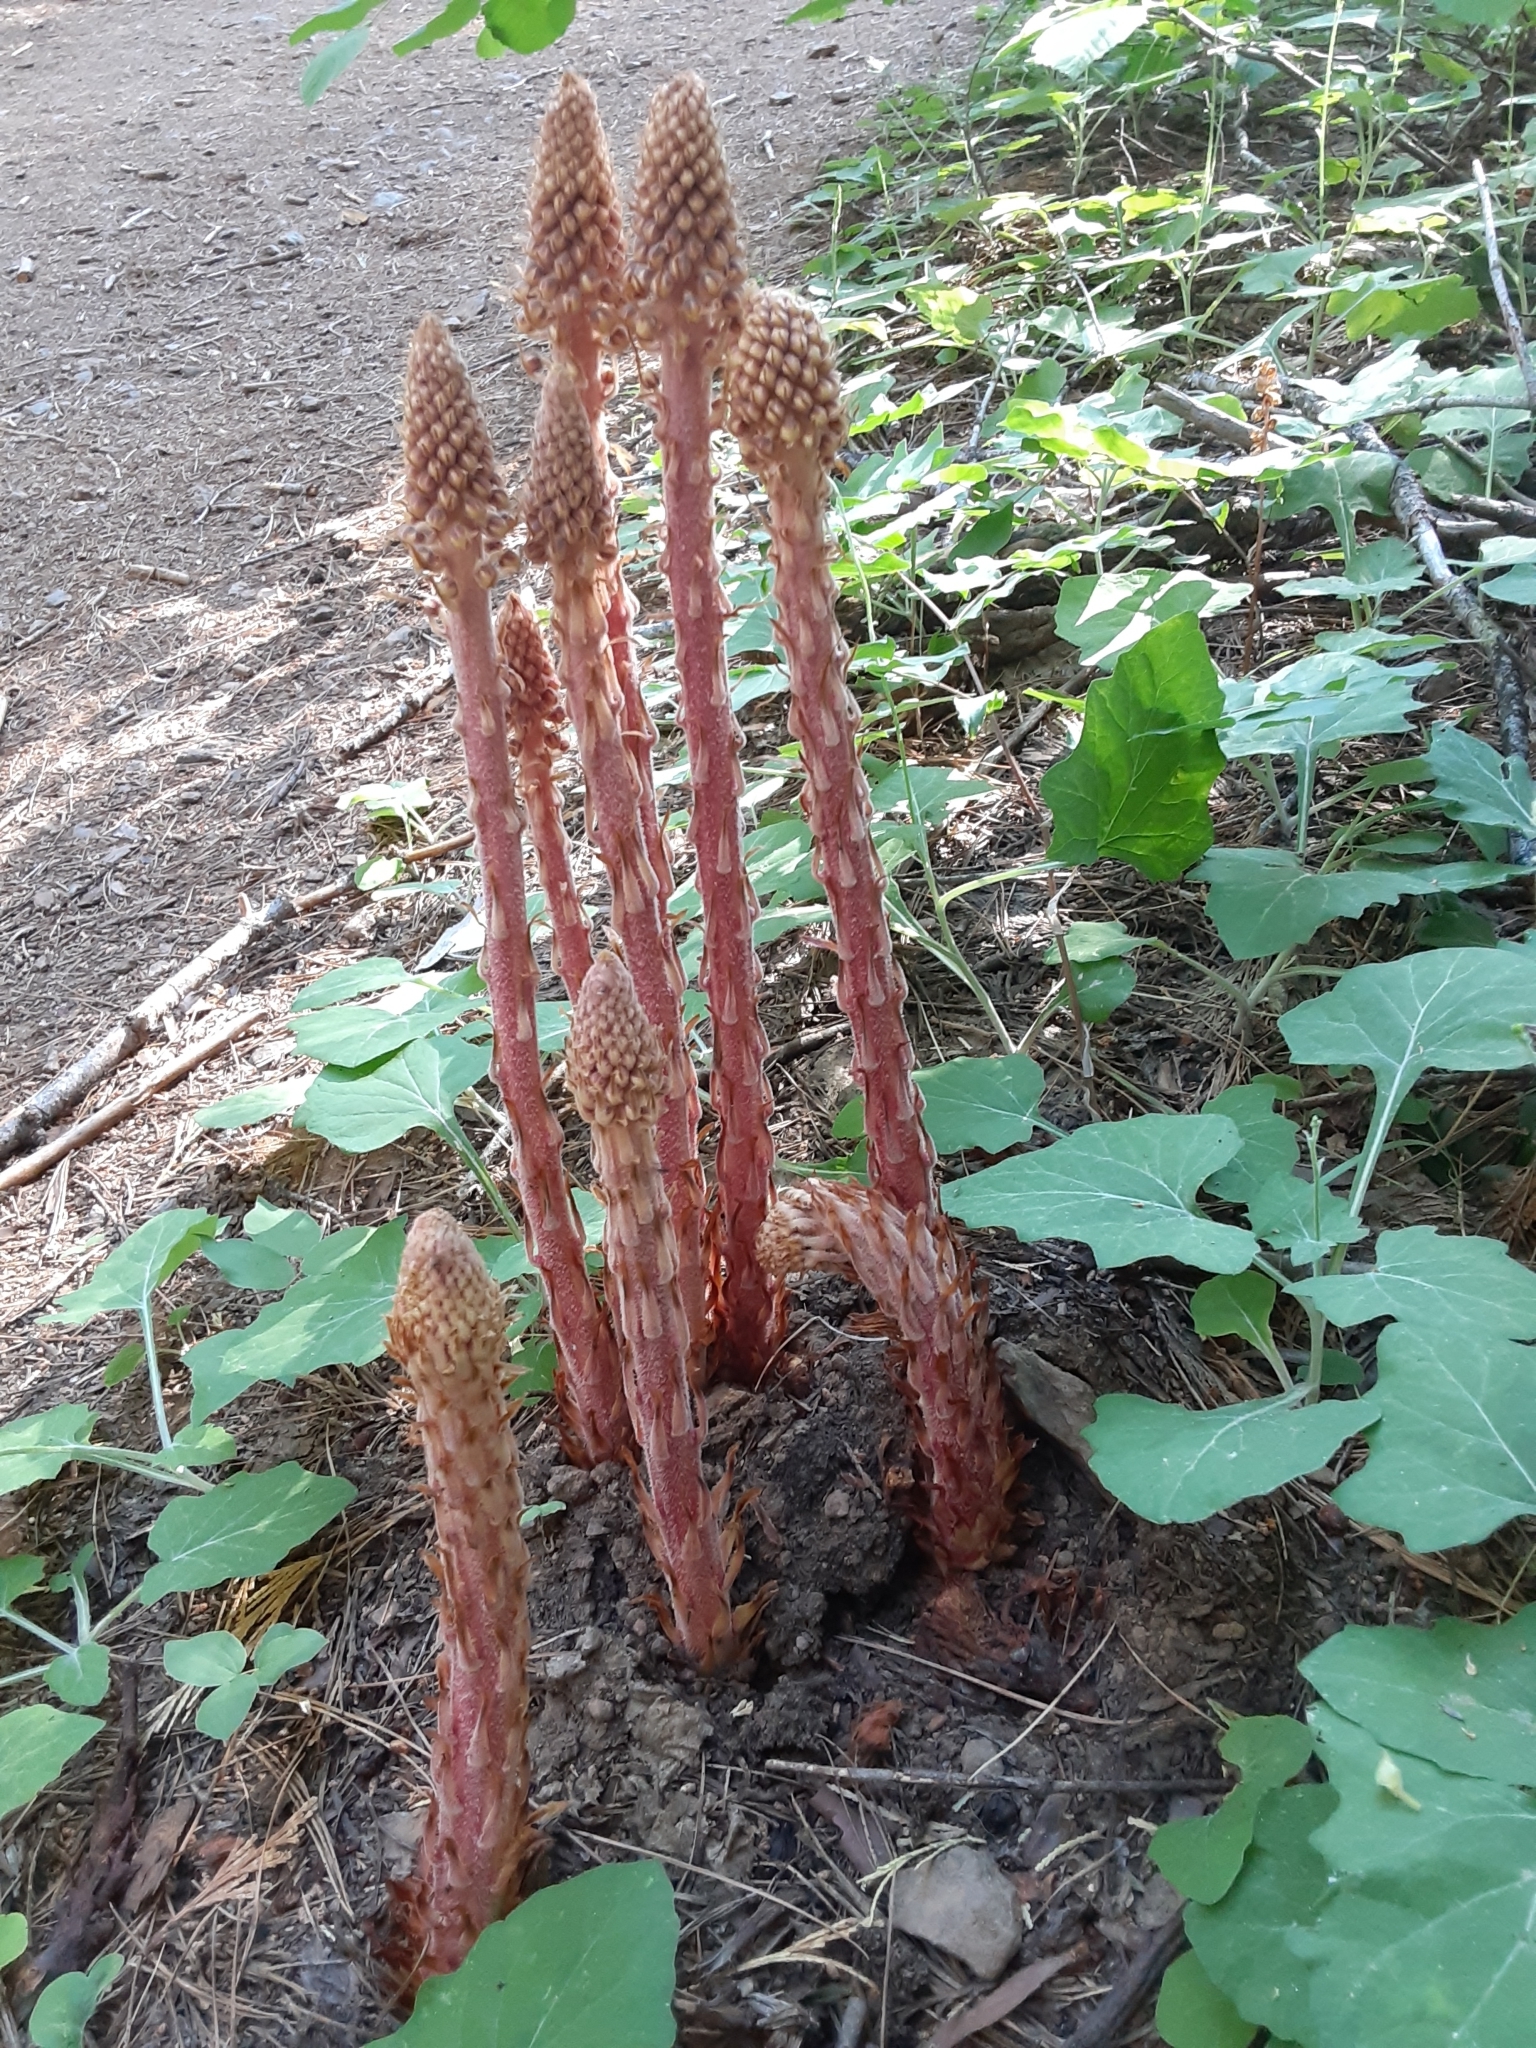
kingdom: Plantae
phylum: Tracheophyta
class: Magnoliopsida
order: Ericales
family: Ericaceae
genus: Pterospora
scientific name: Pterospora andromedea
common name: Giant bird's-nest
